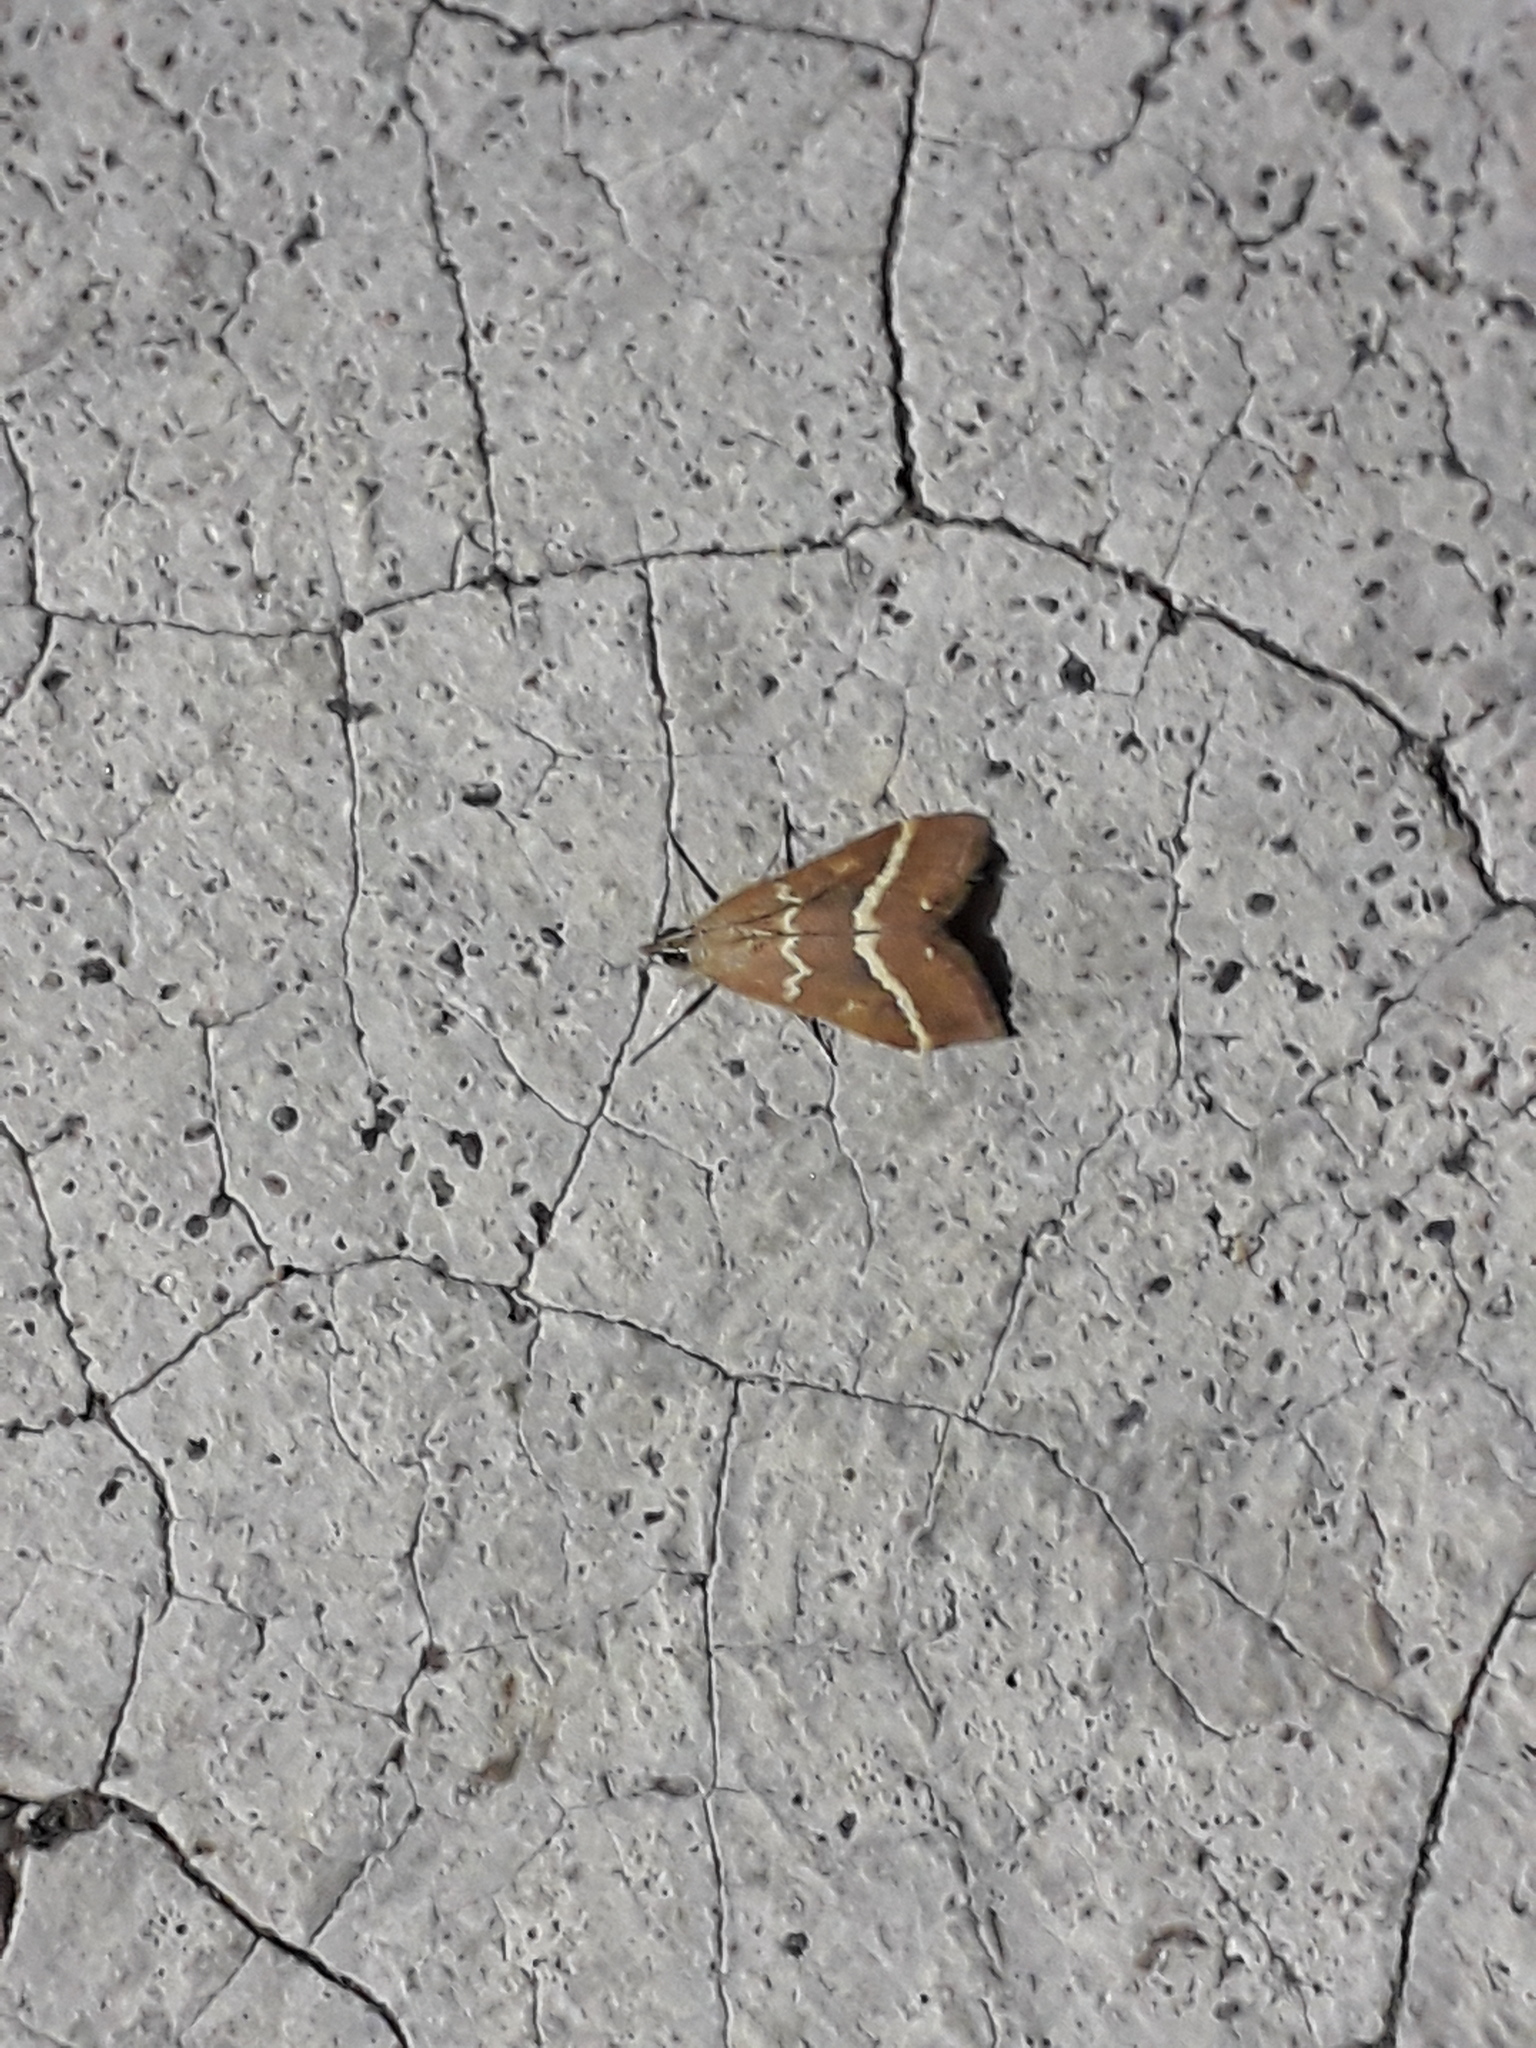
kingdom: Animalia
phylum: Arthropoda
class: Insecta
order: Lepidoptera
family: Crambidae
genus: Pyrausta
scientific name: Pyrausta volupialis
